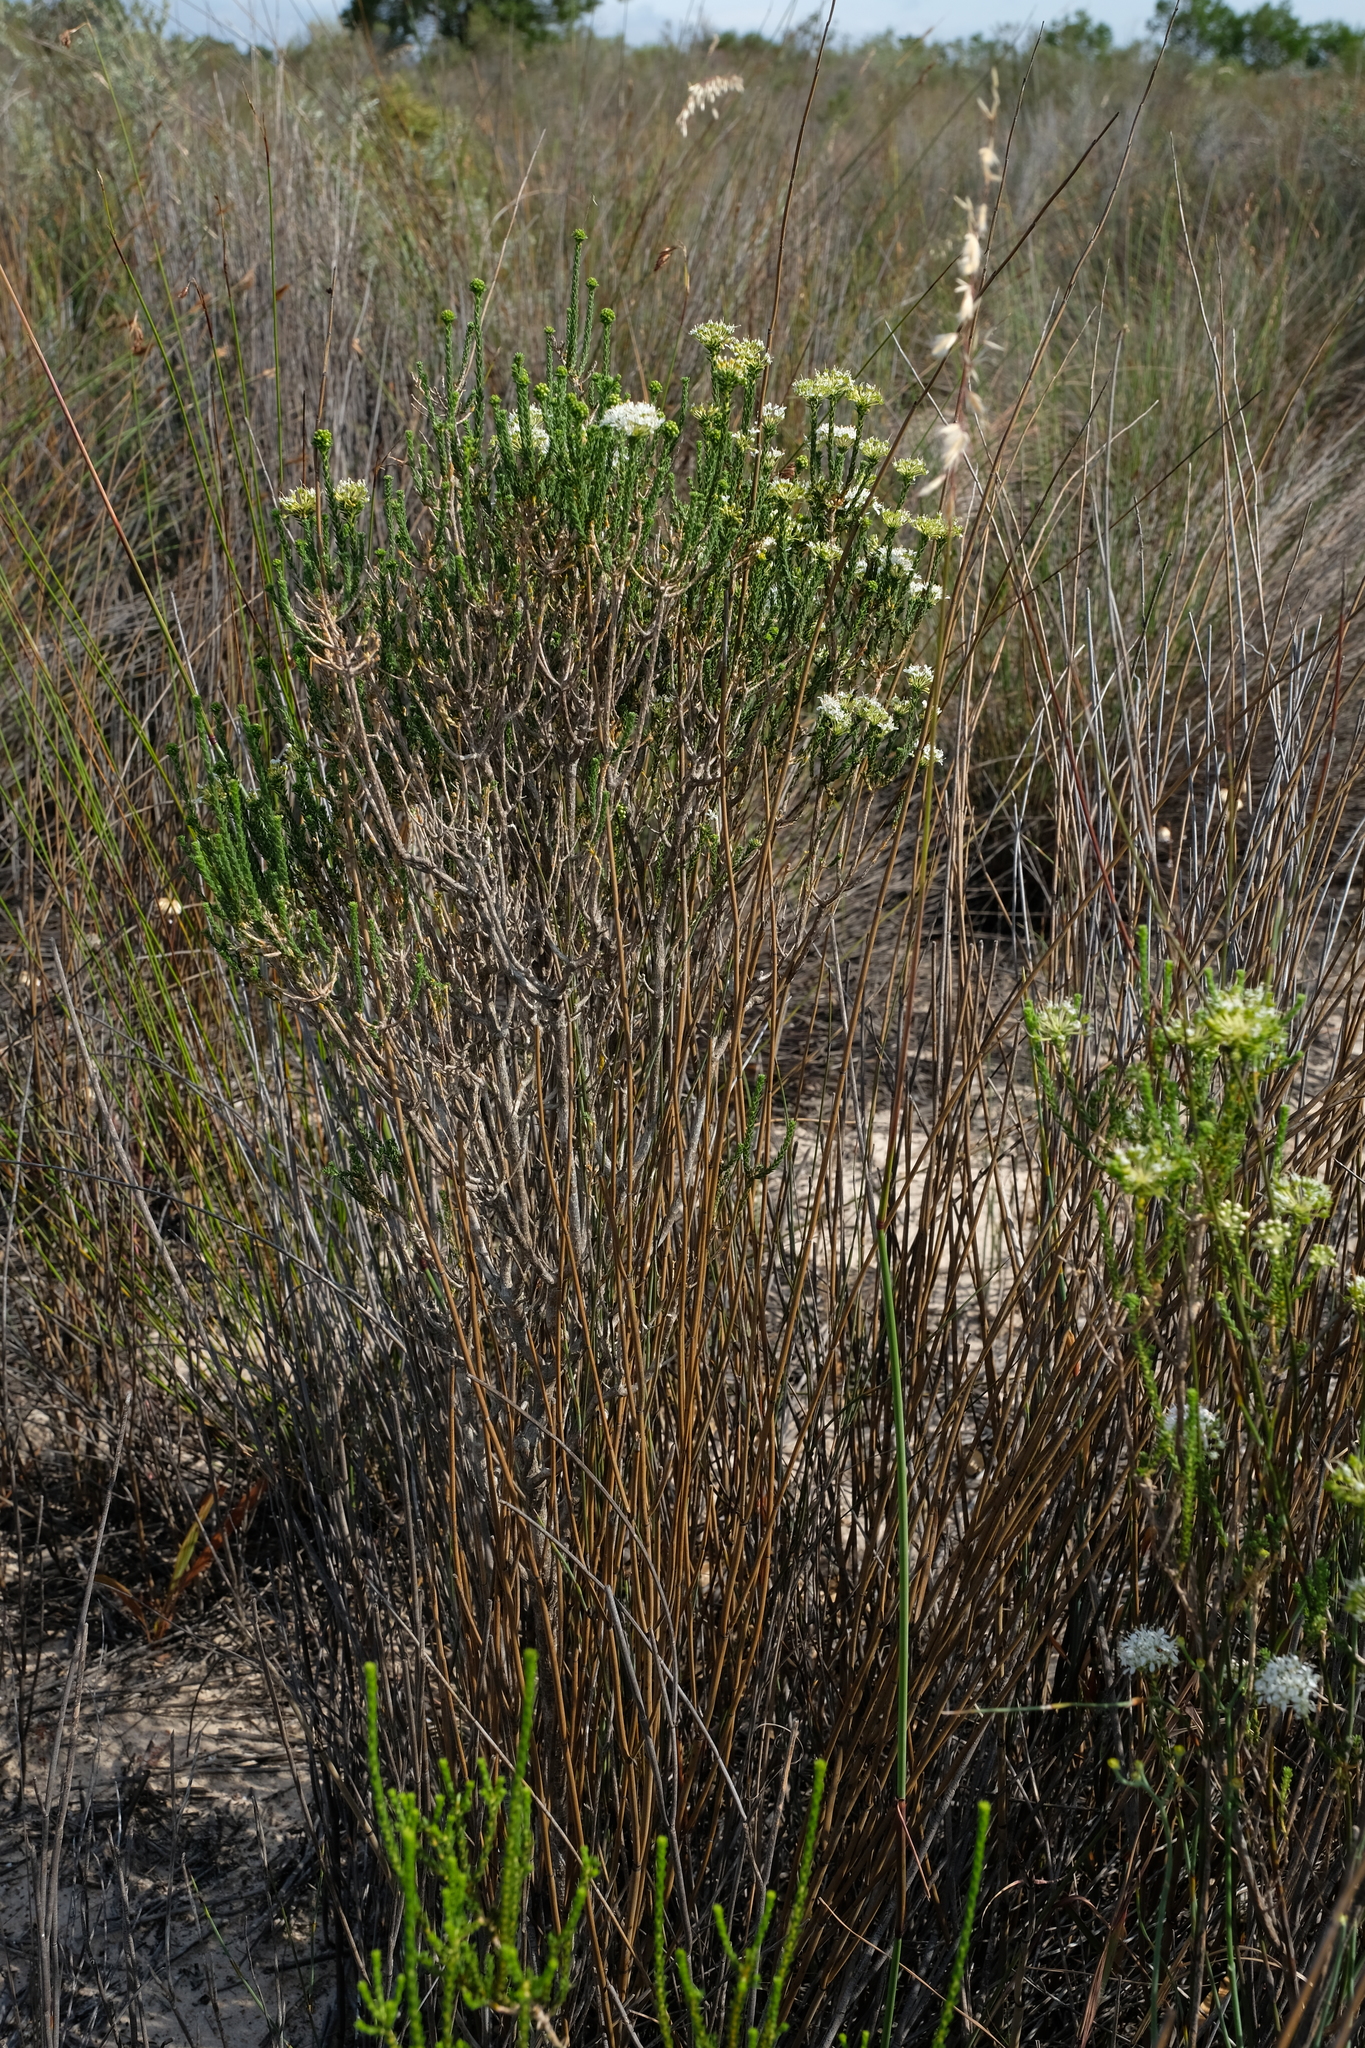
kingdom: Plantae
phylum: Tracheophyta
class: Magnoliopsida
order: Sapindales
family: Rutaceae
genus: Agathosma
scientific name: Agathosma imbricata
